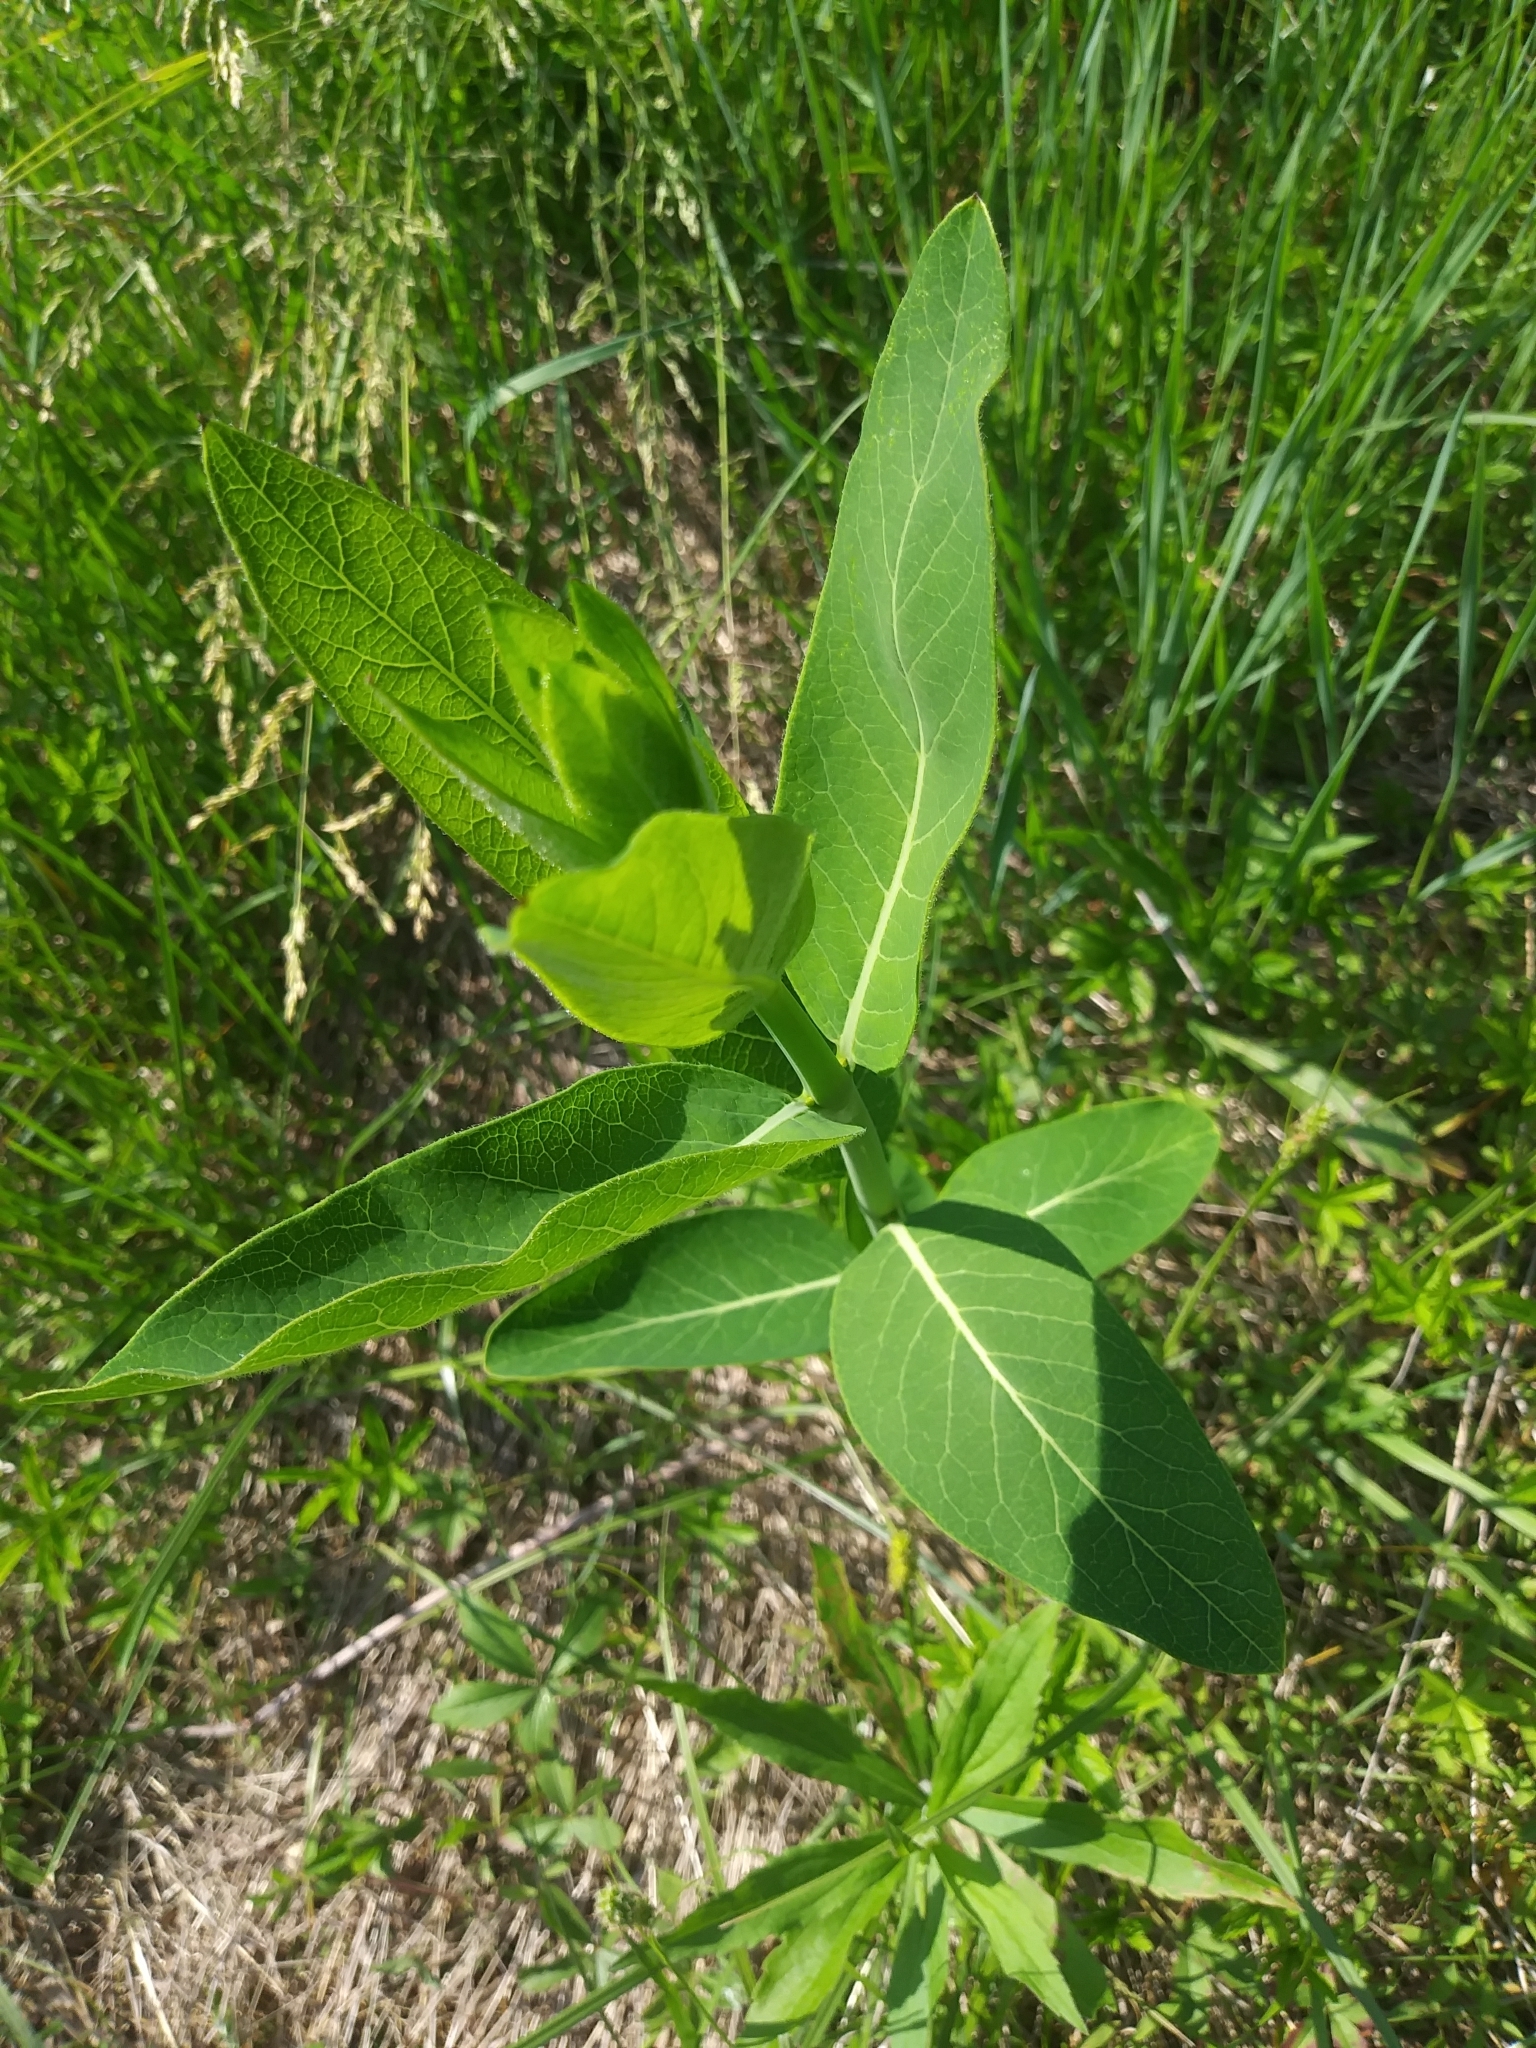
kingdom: Plantae
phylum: Tracheophyta
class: Magnoliopsida
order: Gentianales
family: Apocynaceae
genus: Apocynum
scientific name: Apocynum cannabinum
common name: Hemp dogbane
